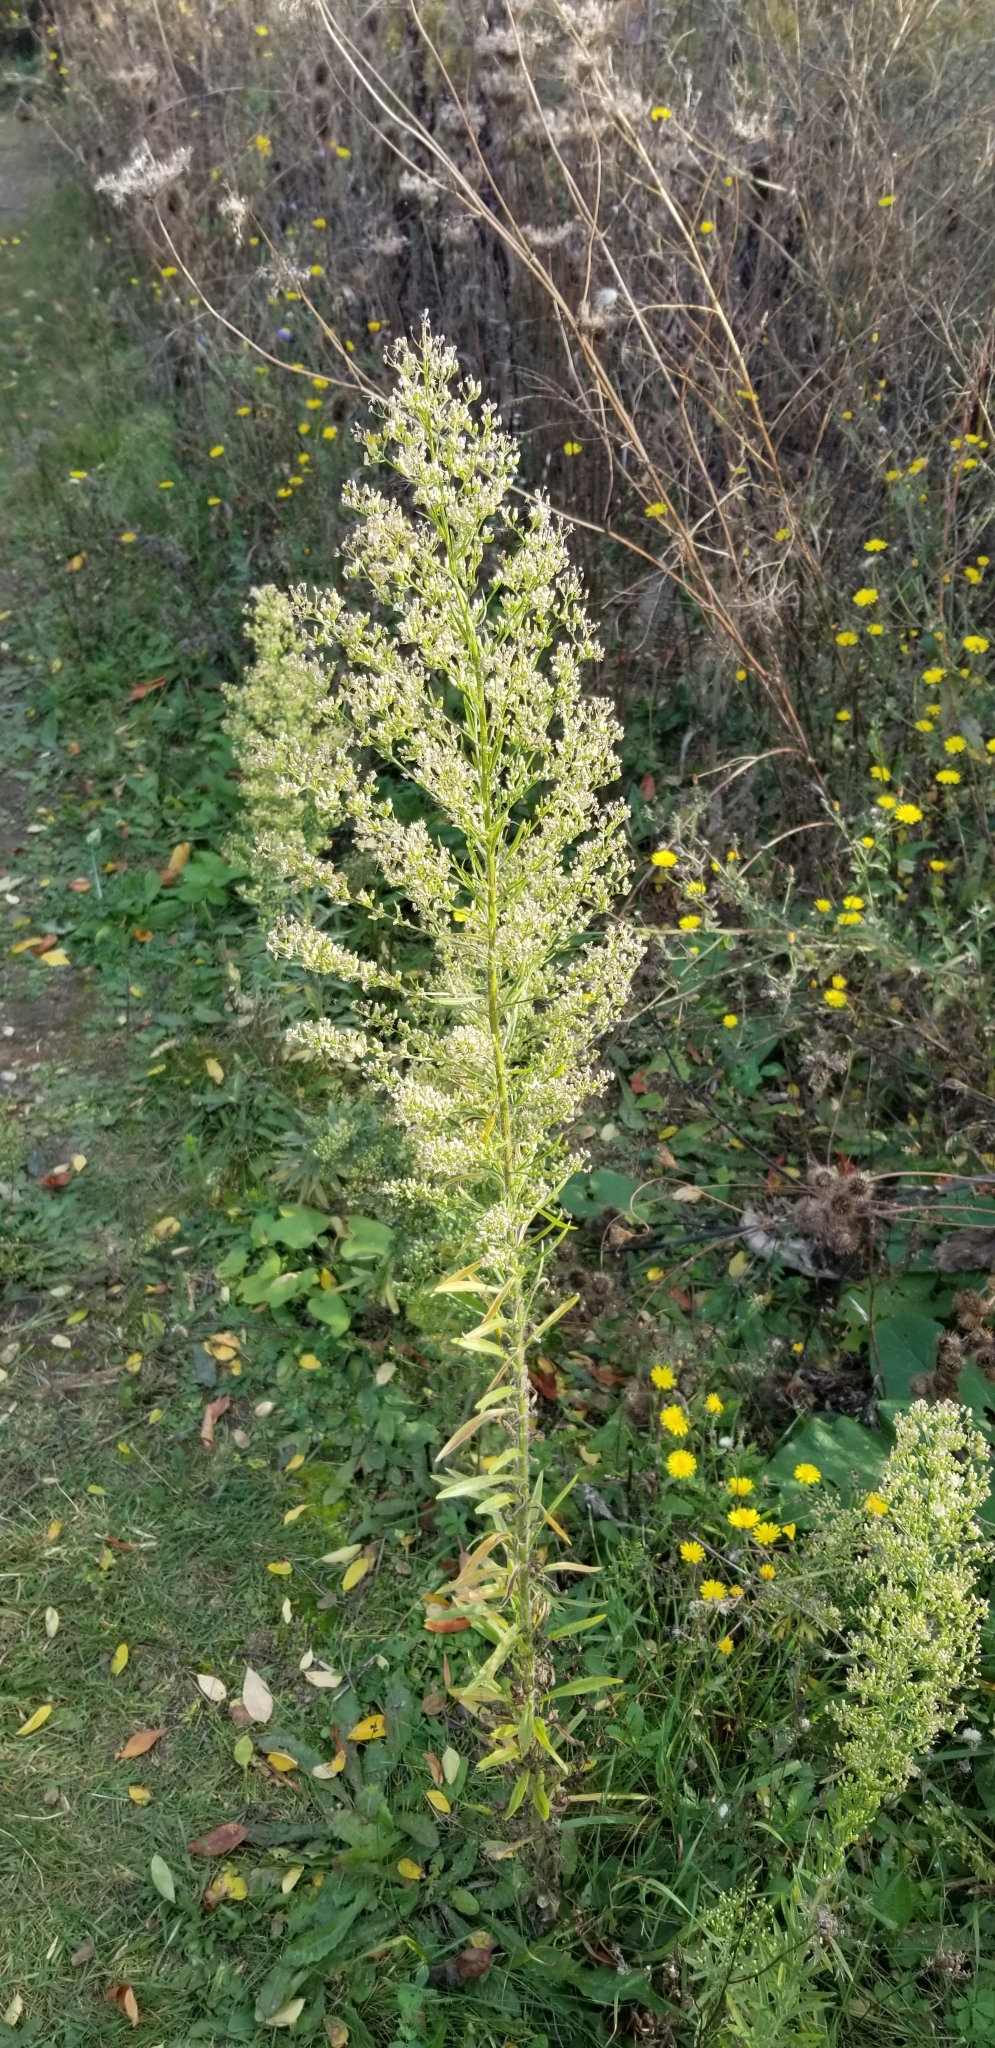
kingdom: Plantae
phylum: Tracheophyta
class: Magnoliopsida
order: Asterales
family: Asteraceae
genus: Erigeron
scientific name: Erigeron canadensis
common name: Canadian fleabane
